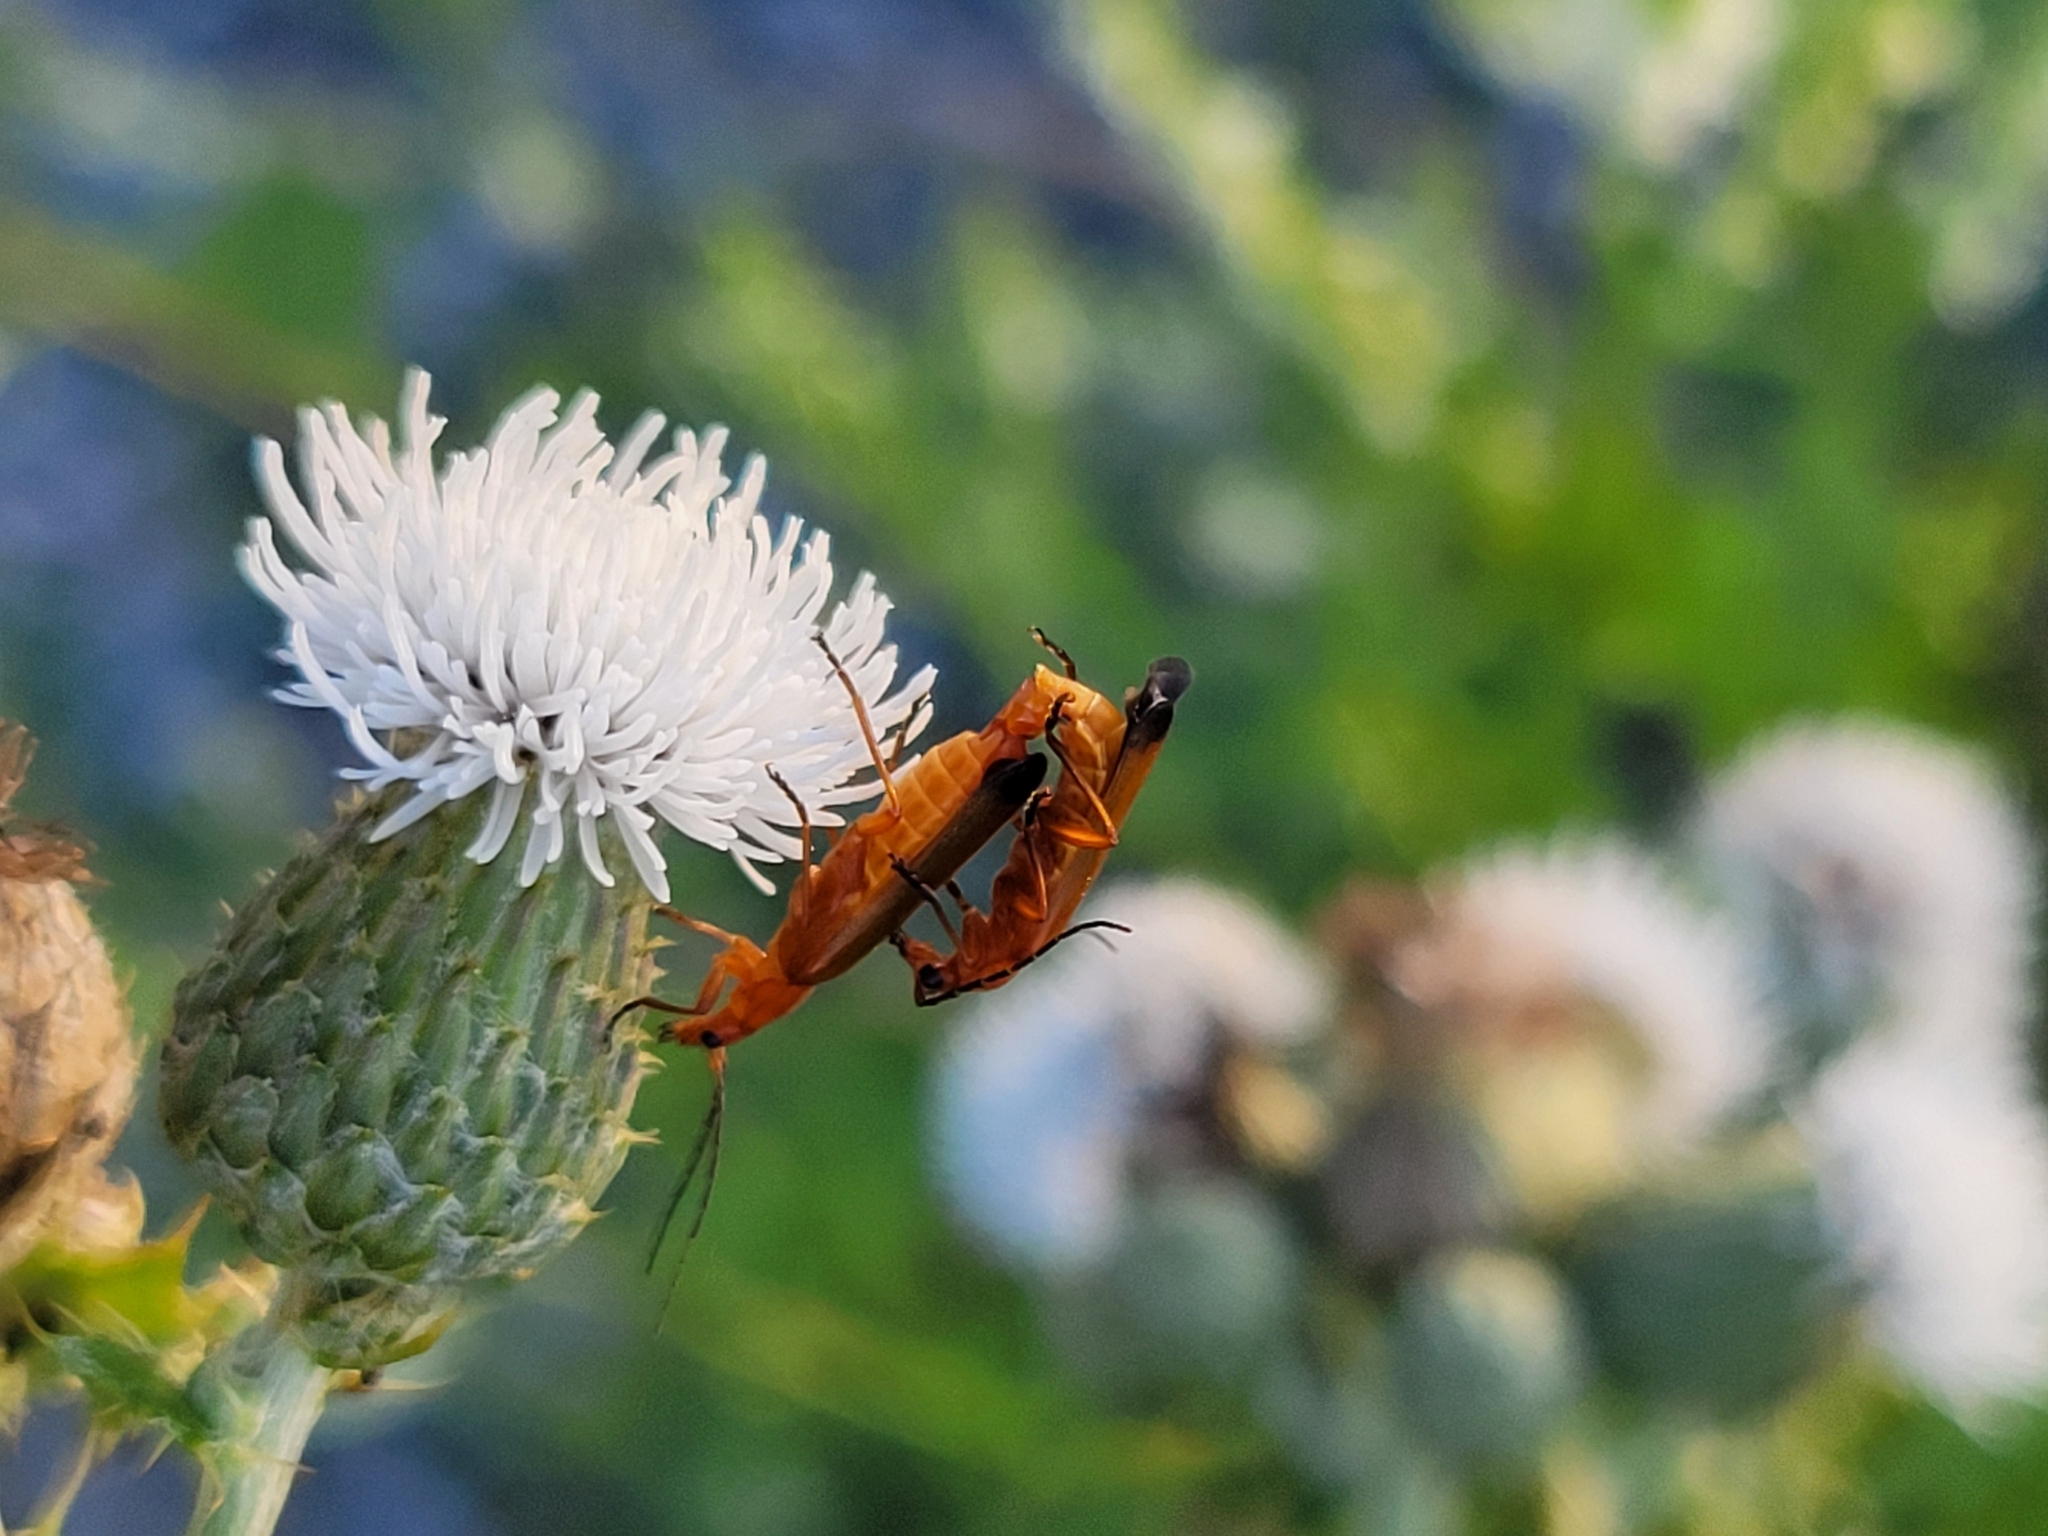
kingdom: Animalia
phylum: Arthropoda
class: Insecta
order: Coleoptera
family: Cantharidae
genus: Rhagonycha
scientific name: Rhagonycha fulva
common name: Common red soldier beetle
